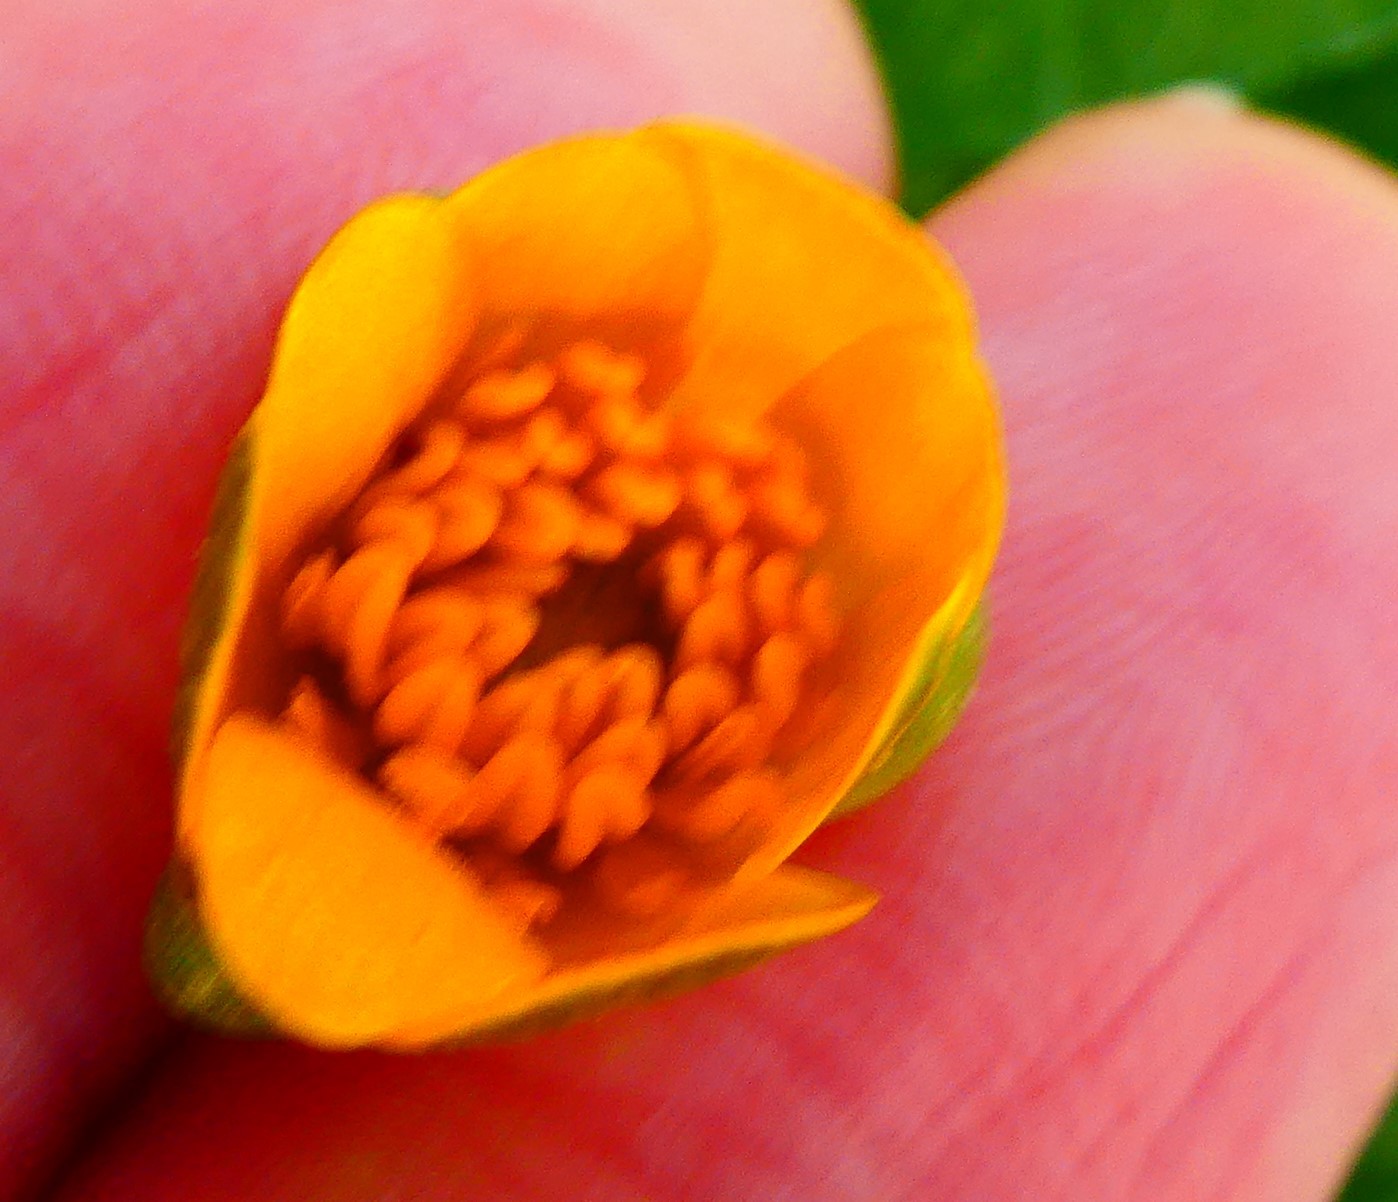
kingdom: Plantae
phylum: Tracheophyta
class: Magnoliopsida
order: Ranunculales
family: Ranunculaceae
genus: Ficaria
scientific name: Ficaria verna
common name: Lesser celandine
